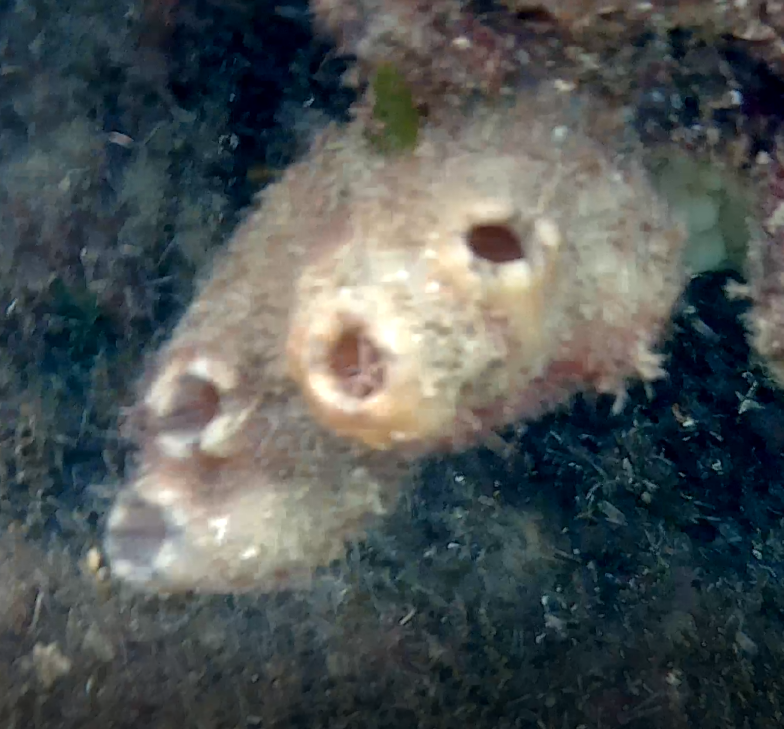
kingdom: Animalia
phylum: Chordata
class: Ascidiacea
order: Stolidobranchia
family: Styelidae
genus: Styela
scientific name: Styela plicata
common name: Pleated tunicate
